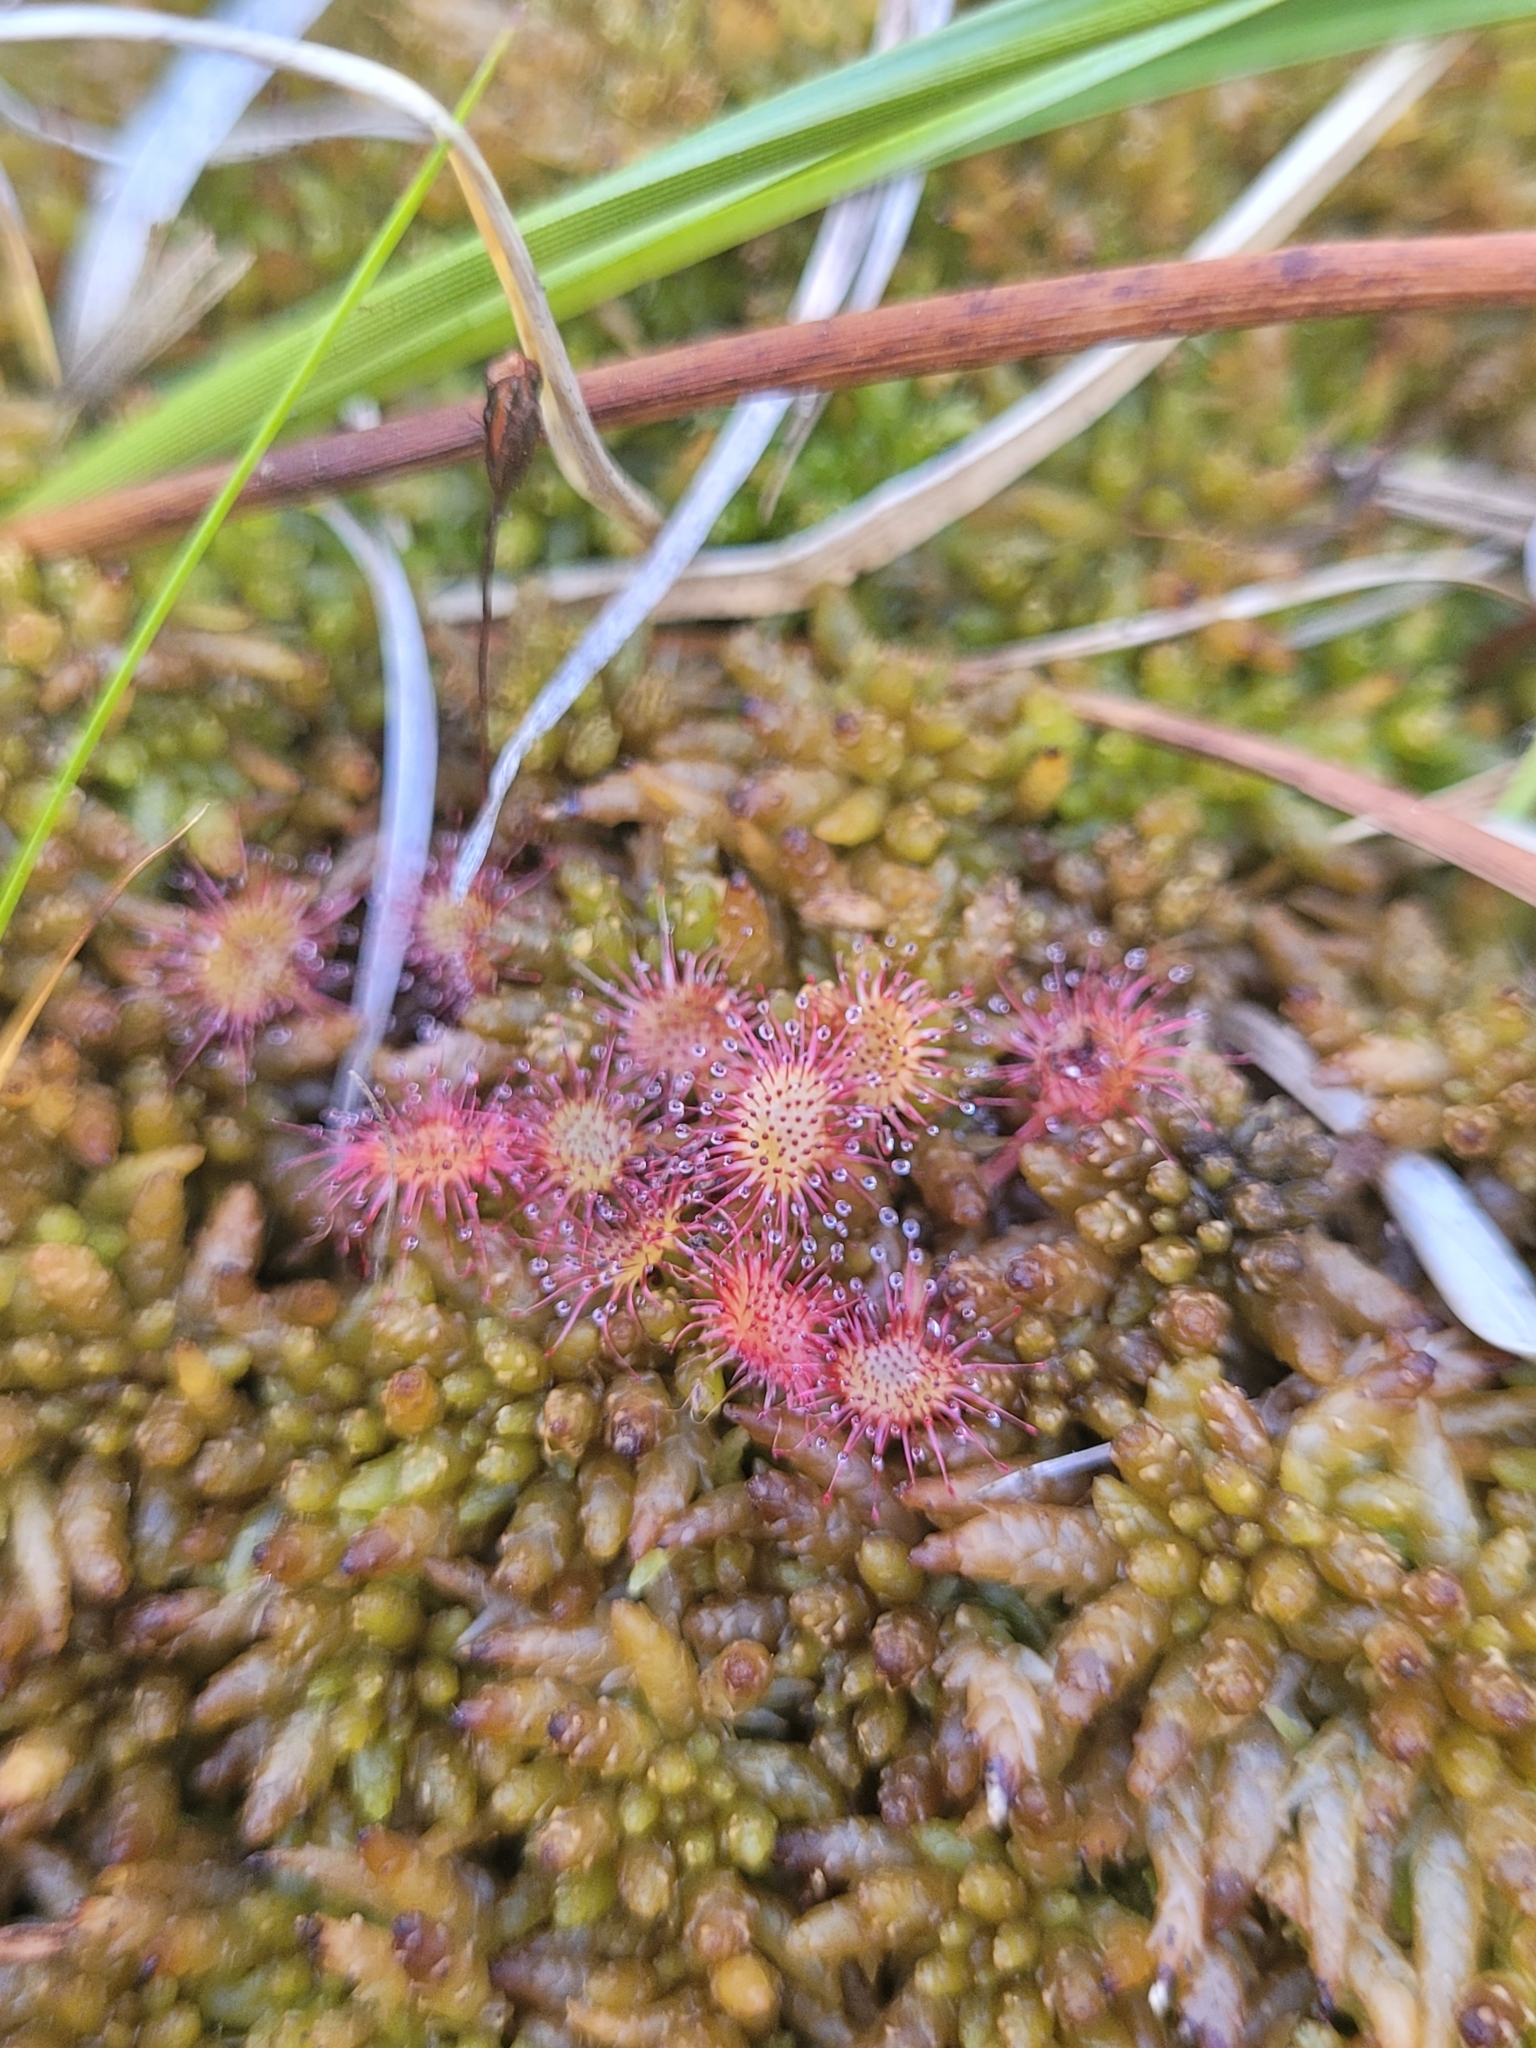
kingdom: Plantae
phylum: Tracheophyta
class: Magnoliopsida
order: Caryophyllales
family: Droseraceae
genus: Drosera
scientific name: Drosera rotundifolia
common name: Round-leaved sundew
